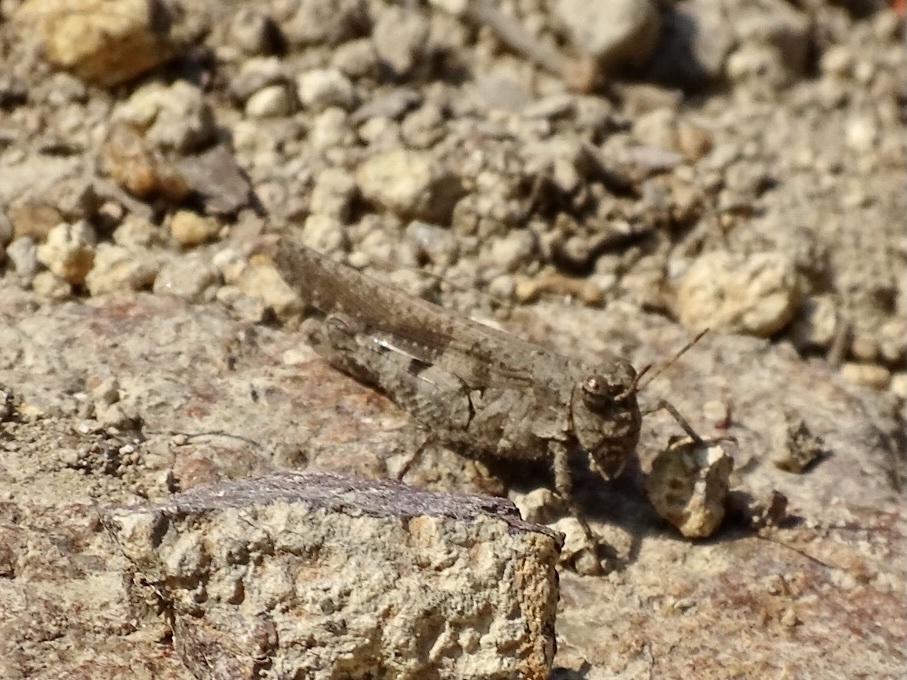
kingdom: Animalia
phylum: Arthropoda
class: Insecta
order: Orthoptera
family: Acrididae
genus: Trilophidia
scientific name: Trilophidia annulata
